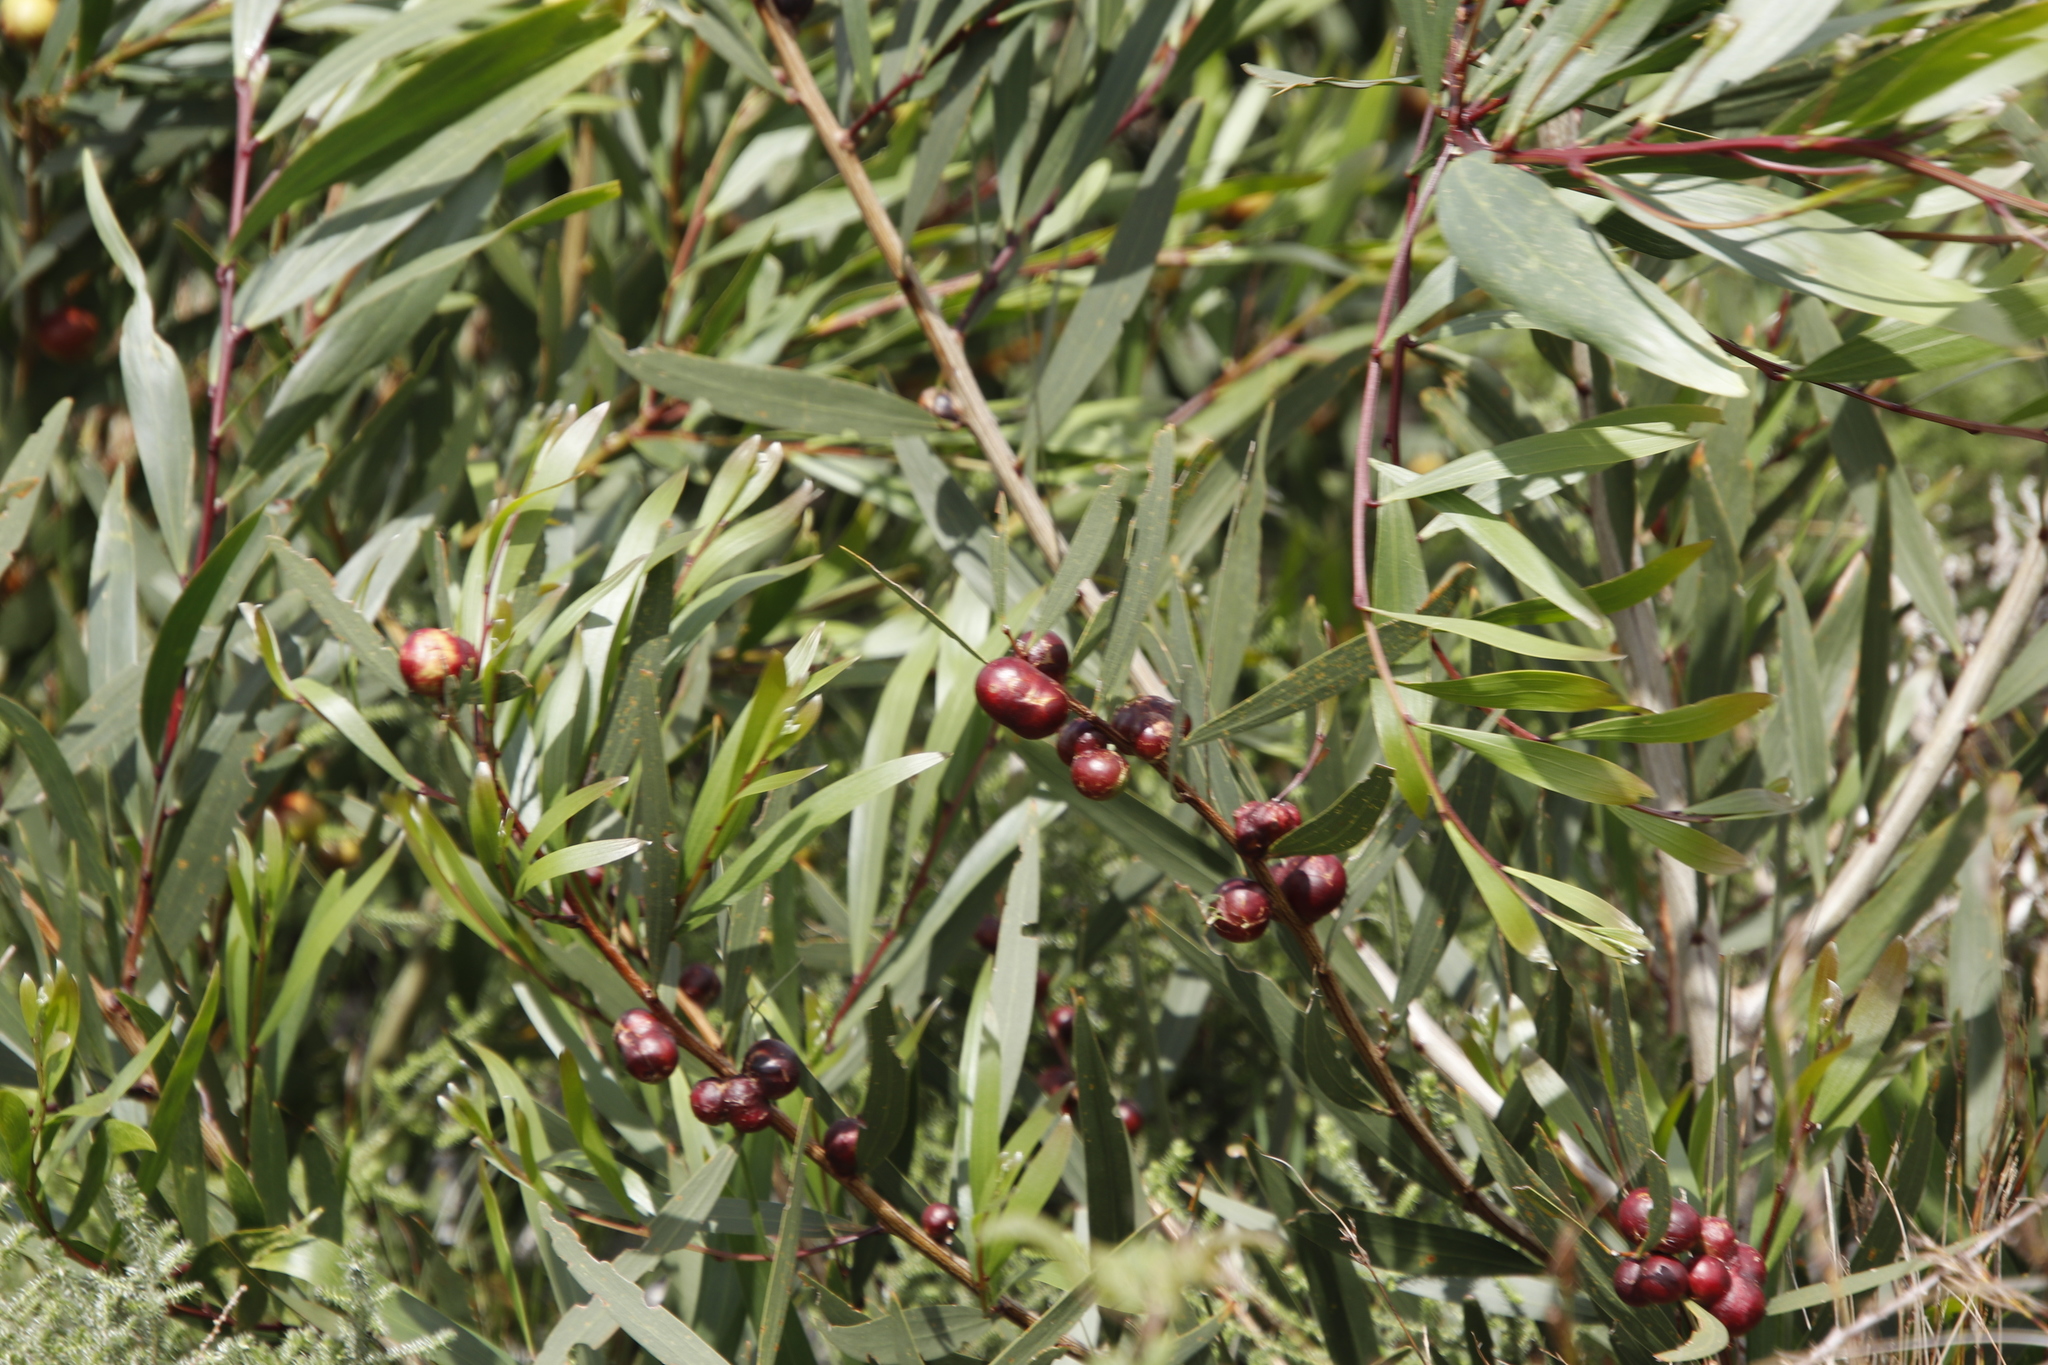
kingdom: Animalia
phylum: Arthropoda
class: Insecta
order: Hymenoptera
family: Pteromalidae
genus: Trichilogaster
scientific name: Trichilogaster acaciaelongifoliae
